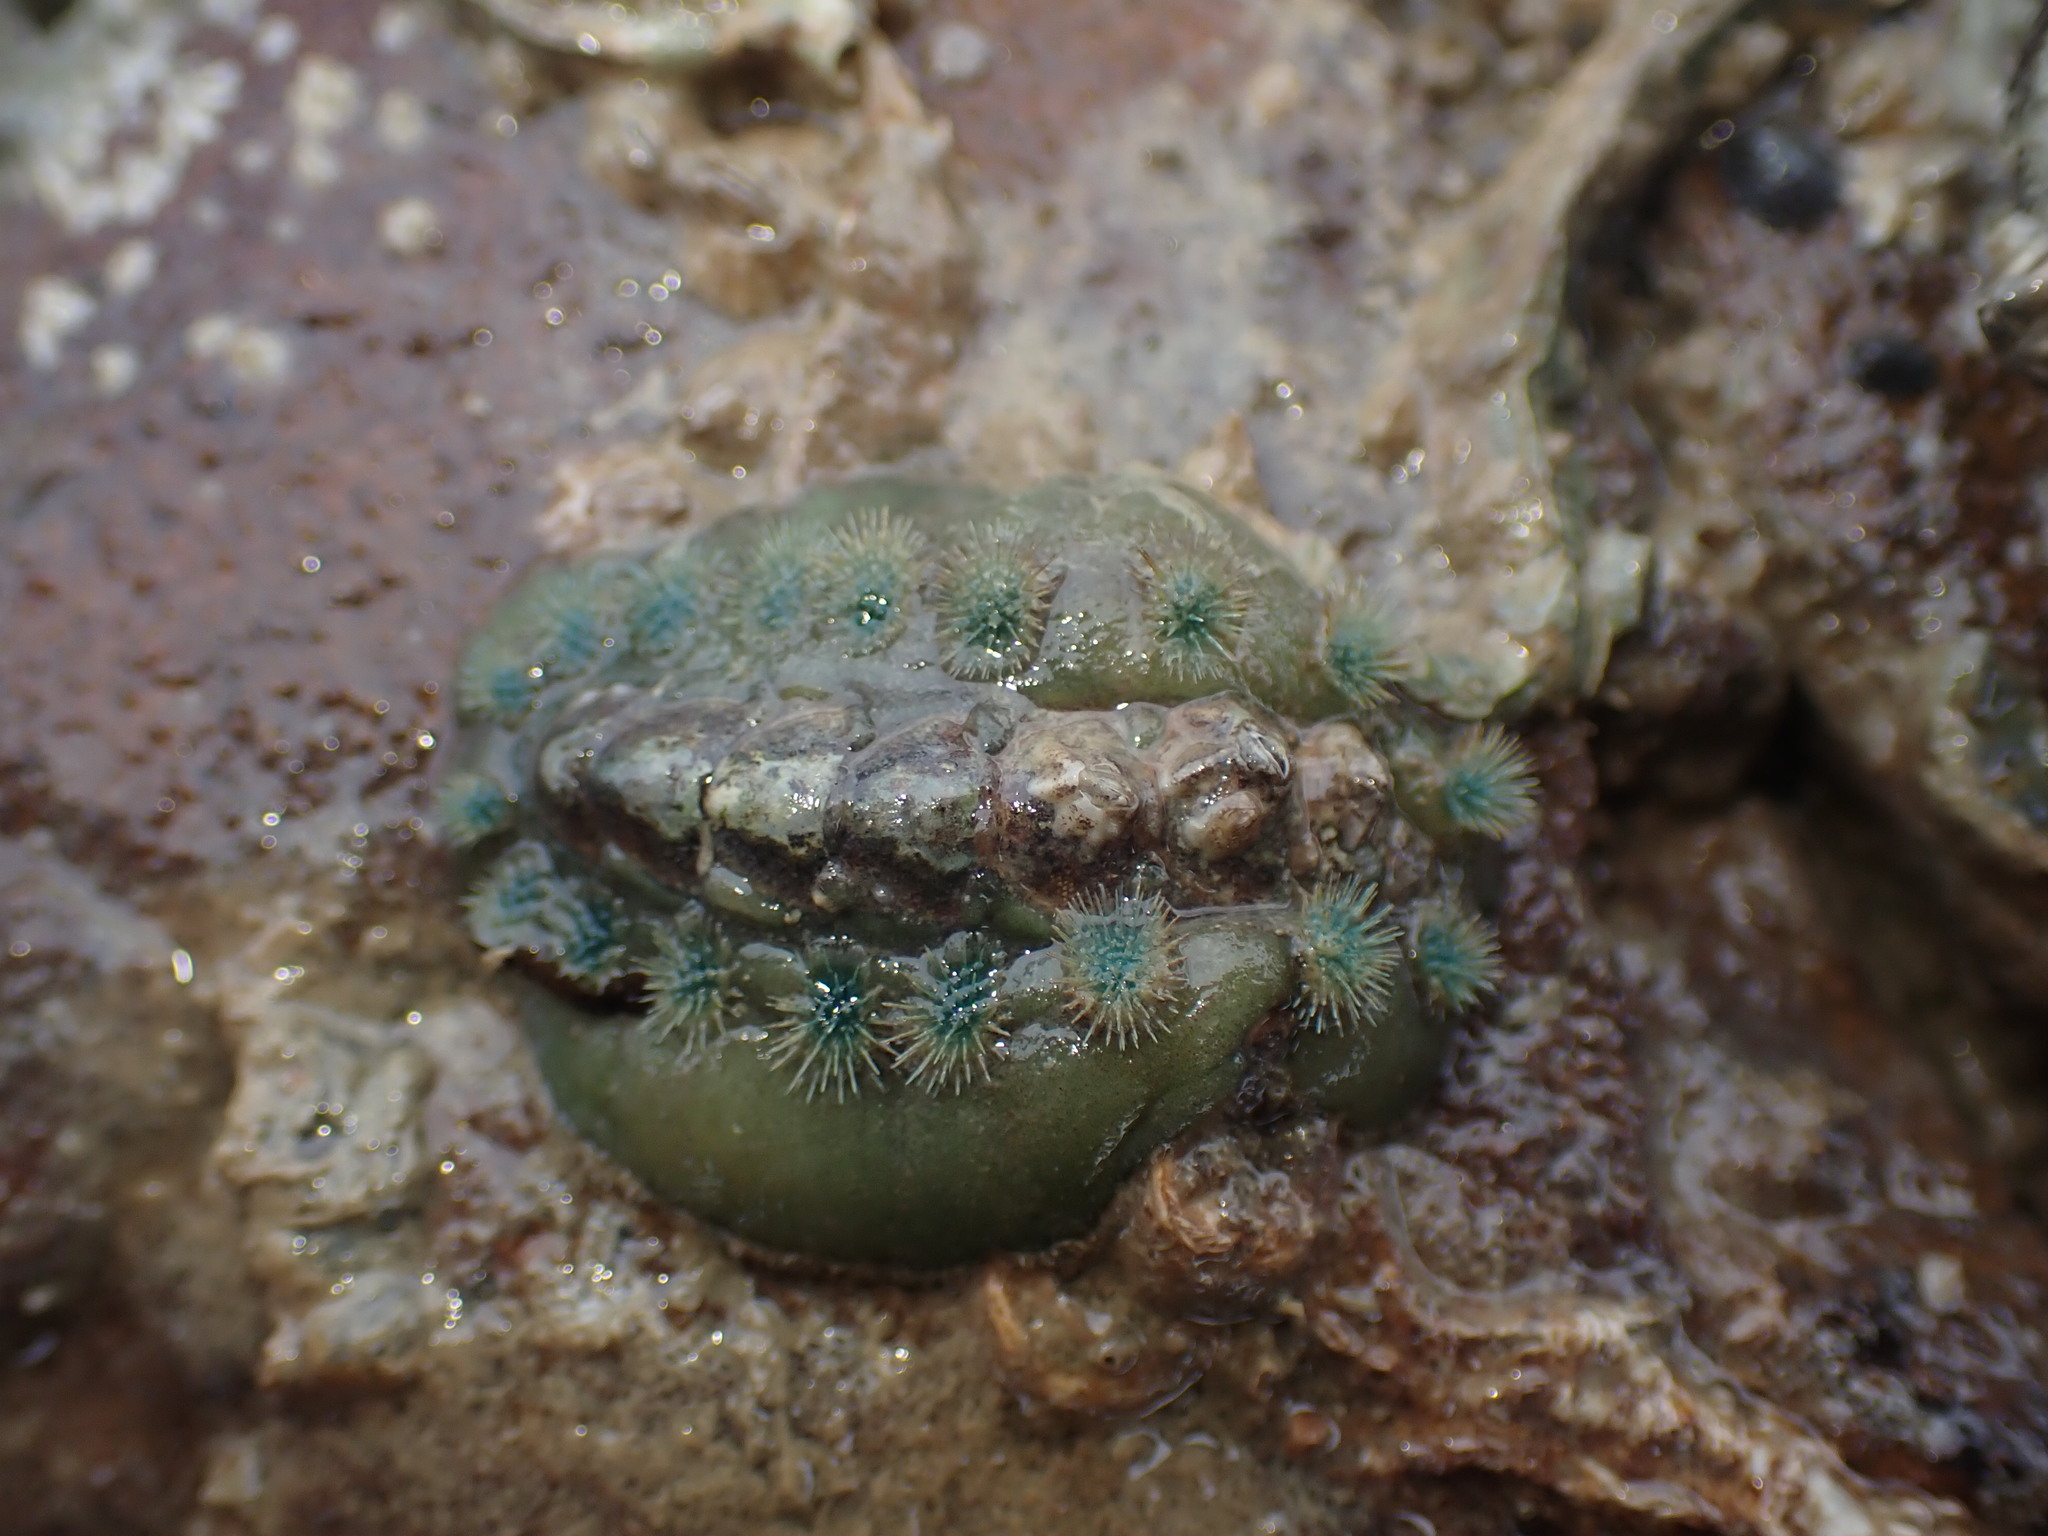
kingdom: Animalia
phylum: Mollusca
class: Polyplacophora
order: Chitonida
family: Acanthochitonidae
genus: Acanthochitona
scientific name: Acanthochitona zelandica
